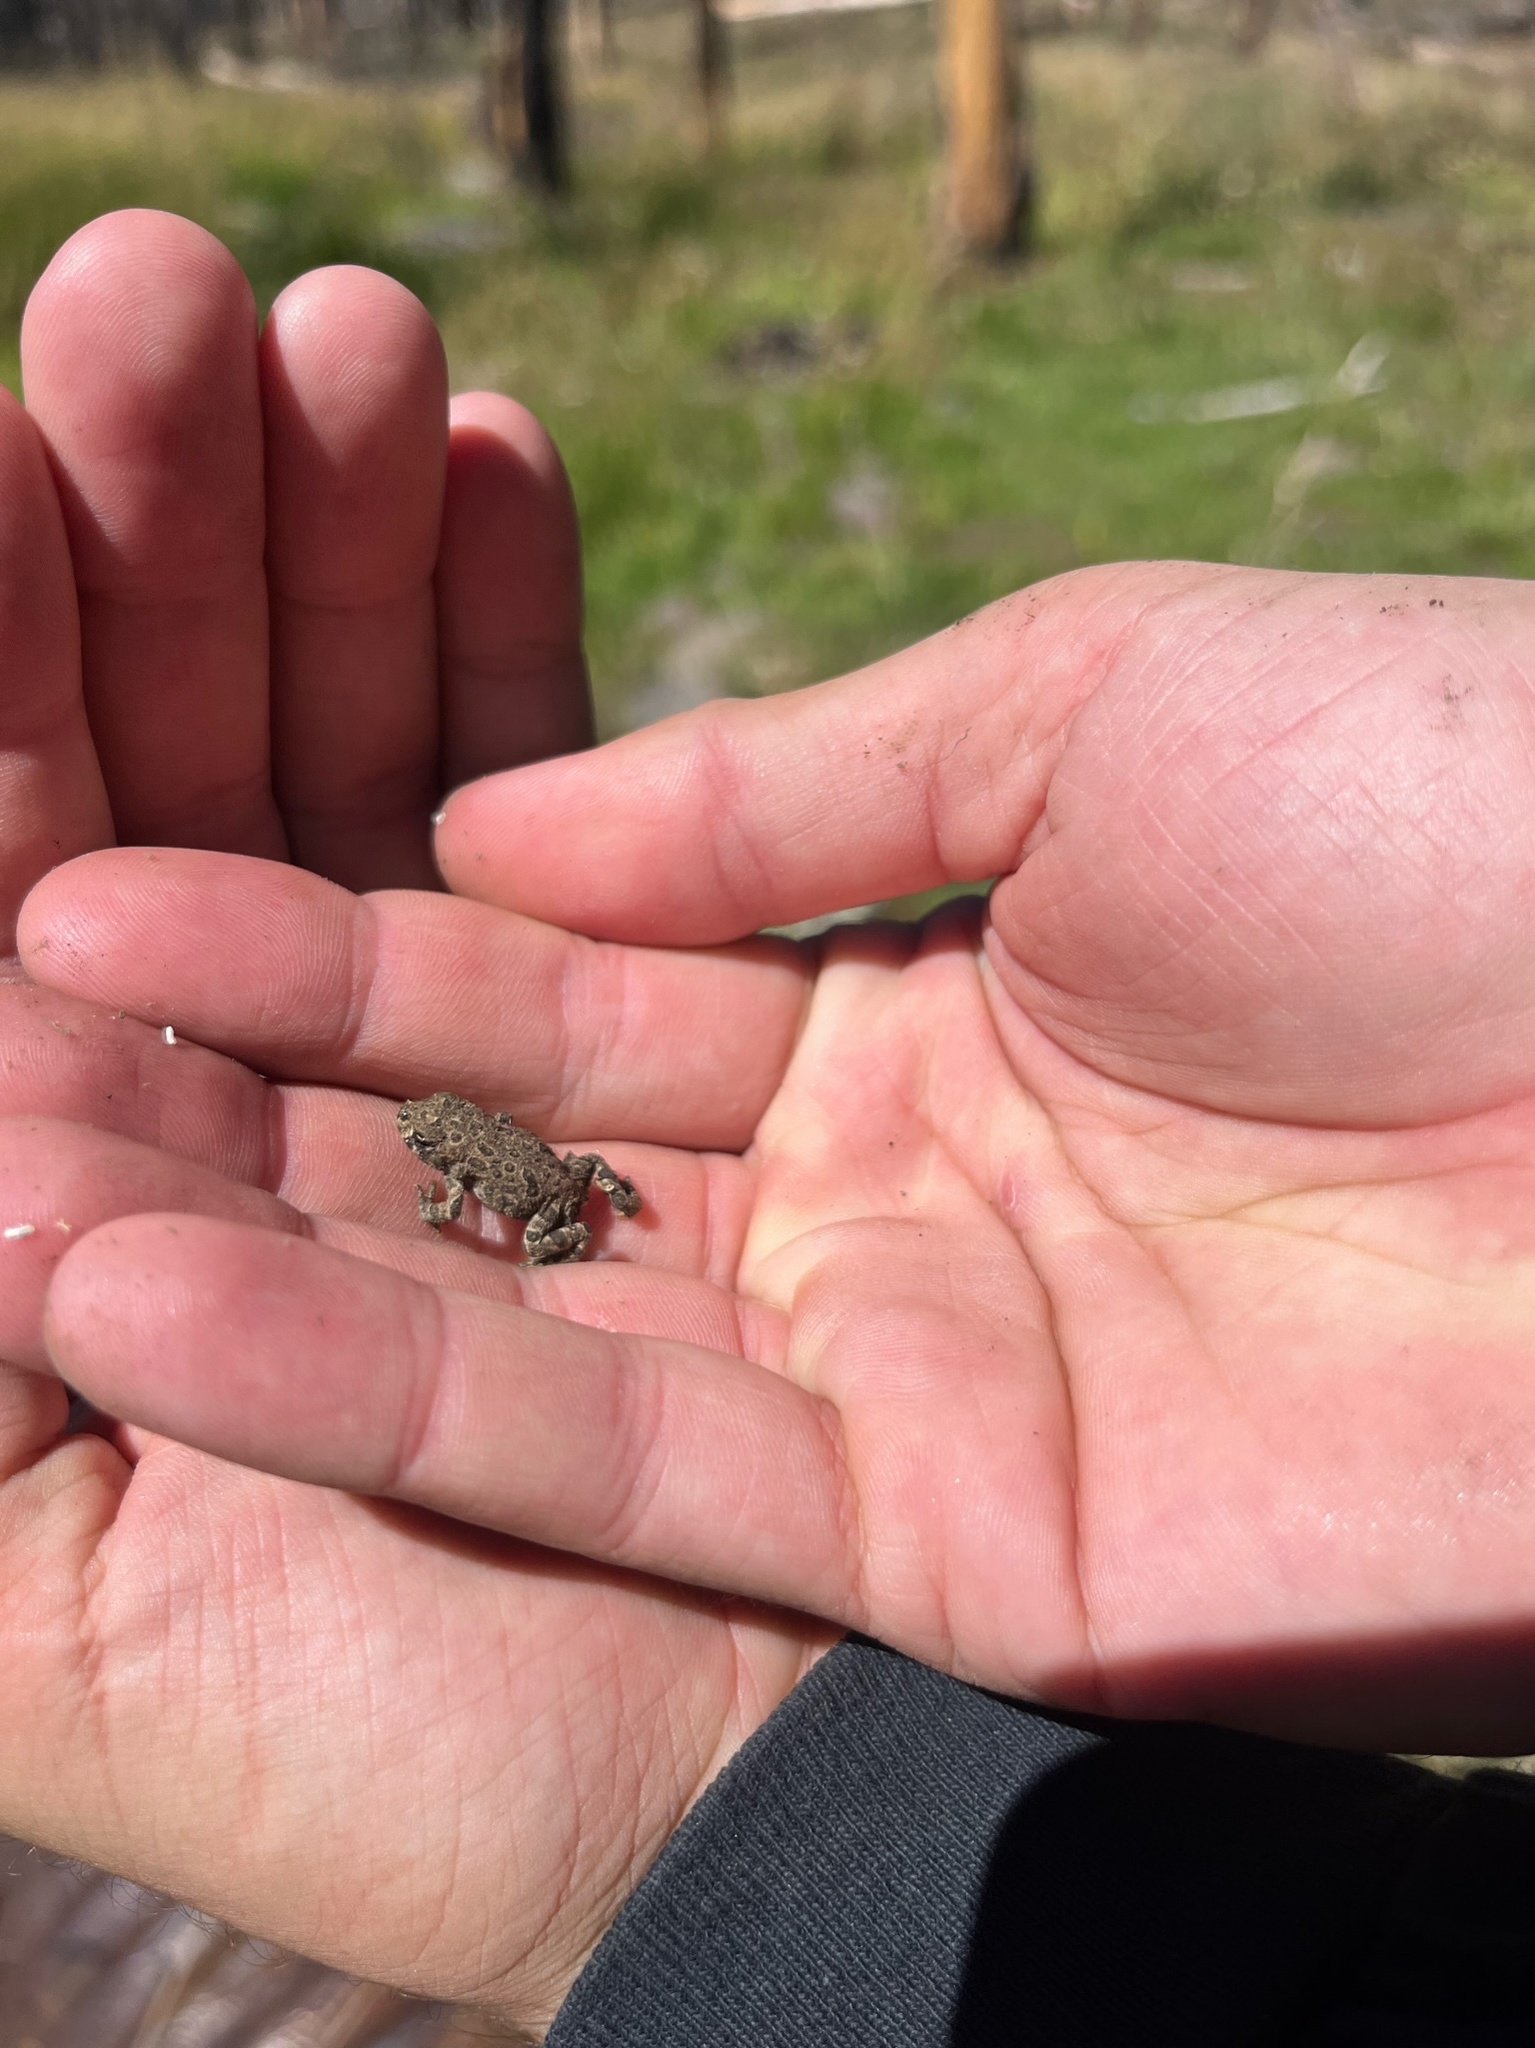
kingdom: Animalia
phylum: Chordata
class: Amphibia
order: Anura
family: Bufonidae
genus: Anaxyrus
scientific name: Anaxyrus boreas
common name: Western toad
